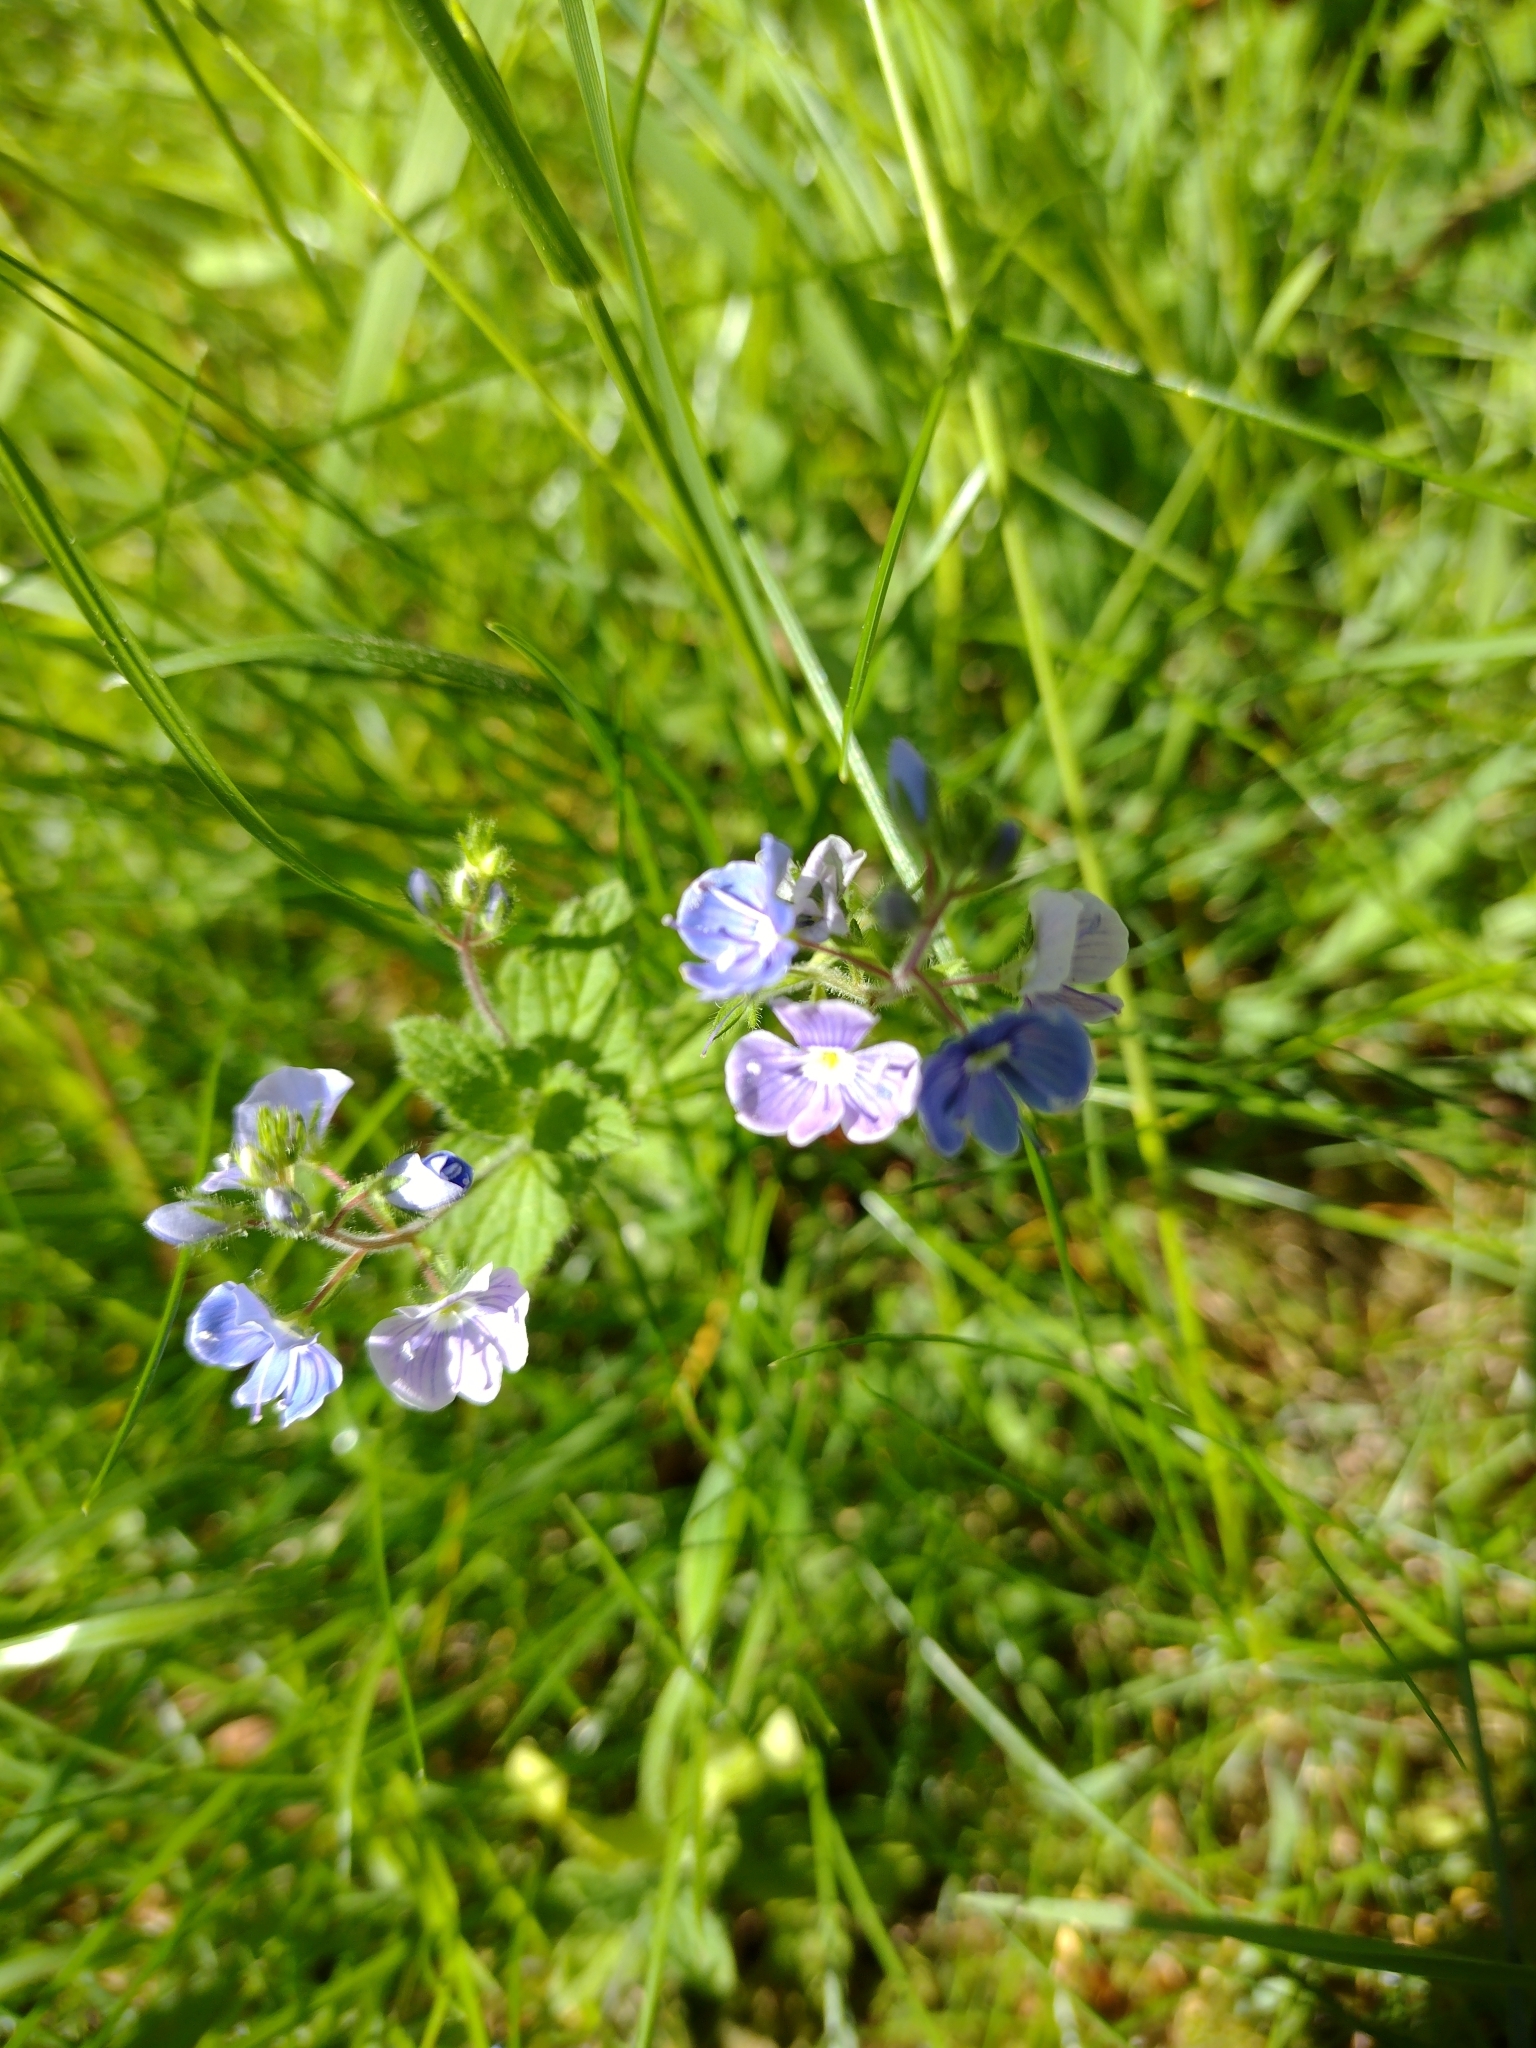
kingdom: Plantae
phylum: Tracheophyta
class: Magnoliopsida
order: Lamiales
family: Plantaginaceae
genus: Veronica
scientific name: Veronica chamaedrys
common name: Germander speedwell
